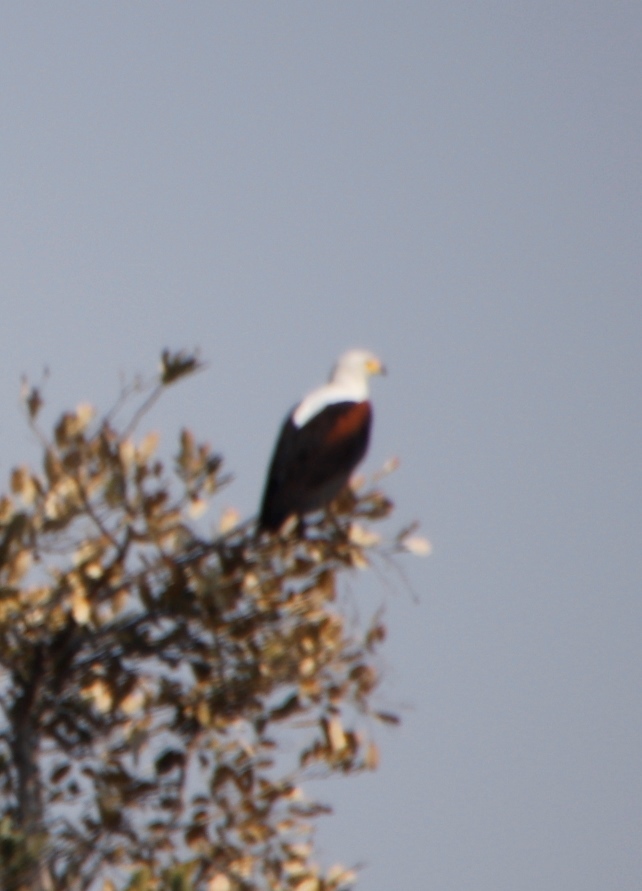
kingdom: Animalia
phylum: Chordata
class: Aves
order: Accipitriformes
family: Accipitridae
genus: Haliaeetus
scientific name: Haliaeetus vocifer
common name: African fish eagle
